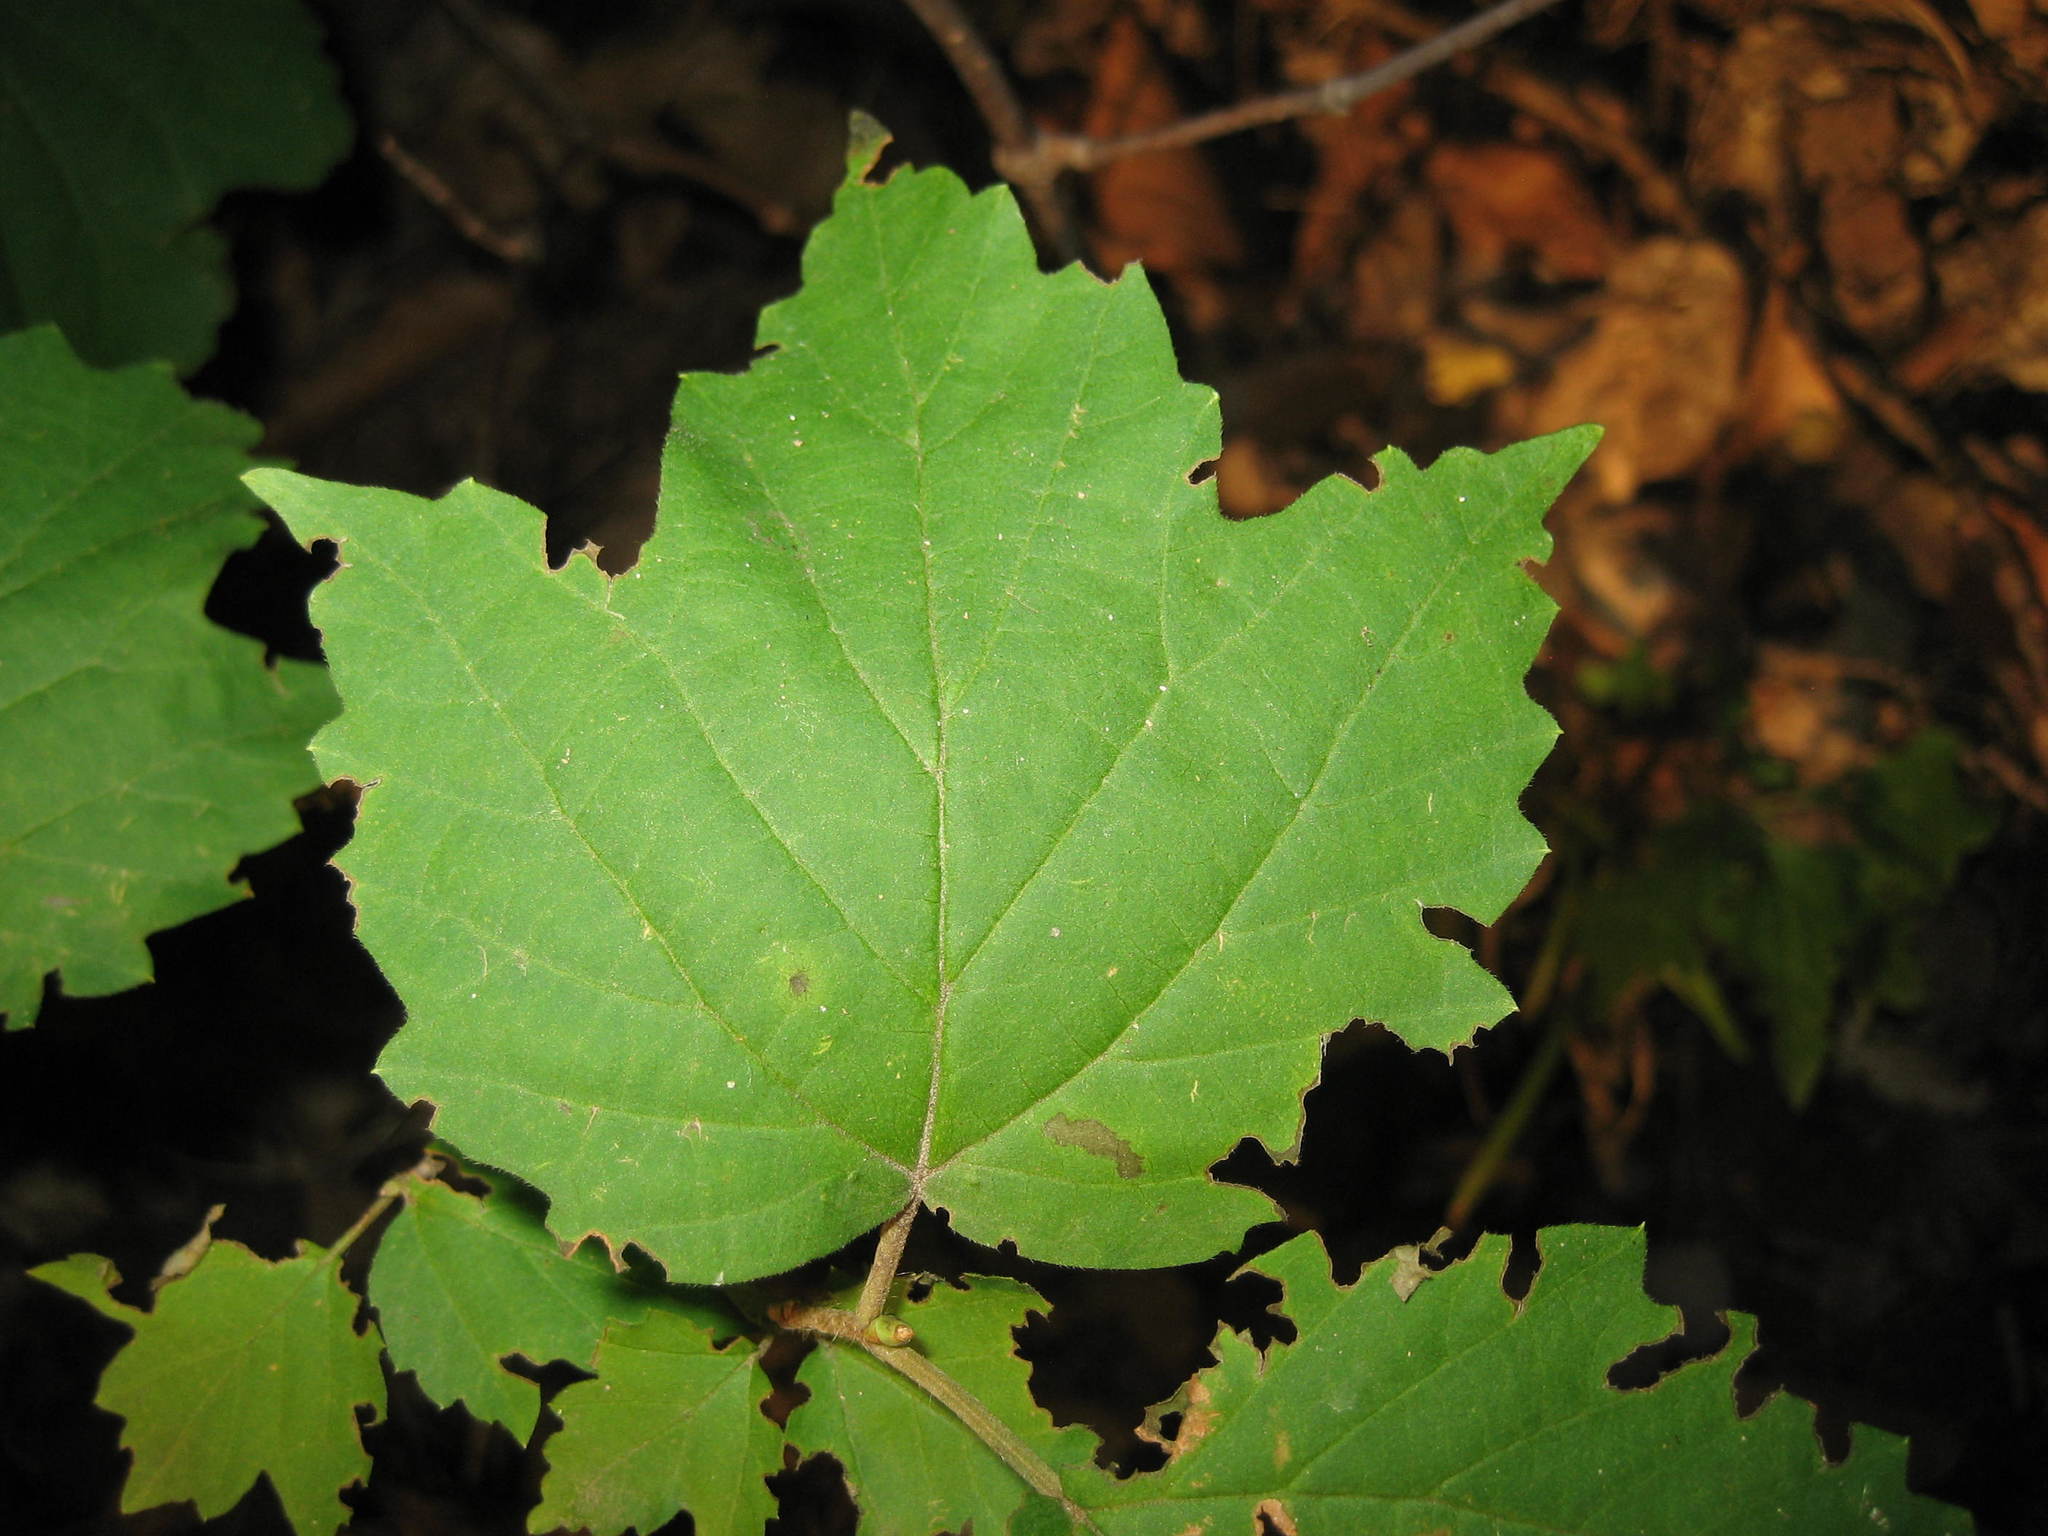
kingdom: Plantae
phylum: Tracheophyta
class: Magnoliopsida
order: Dipsacales
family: Viburnaceae
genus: Viburnum
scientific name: Viburnum acerifolium
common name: Dockmackie
